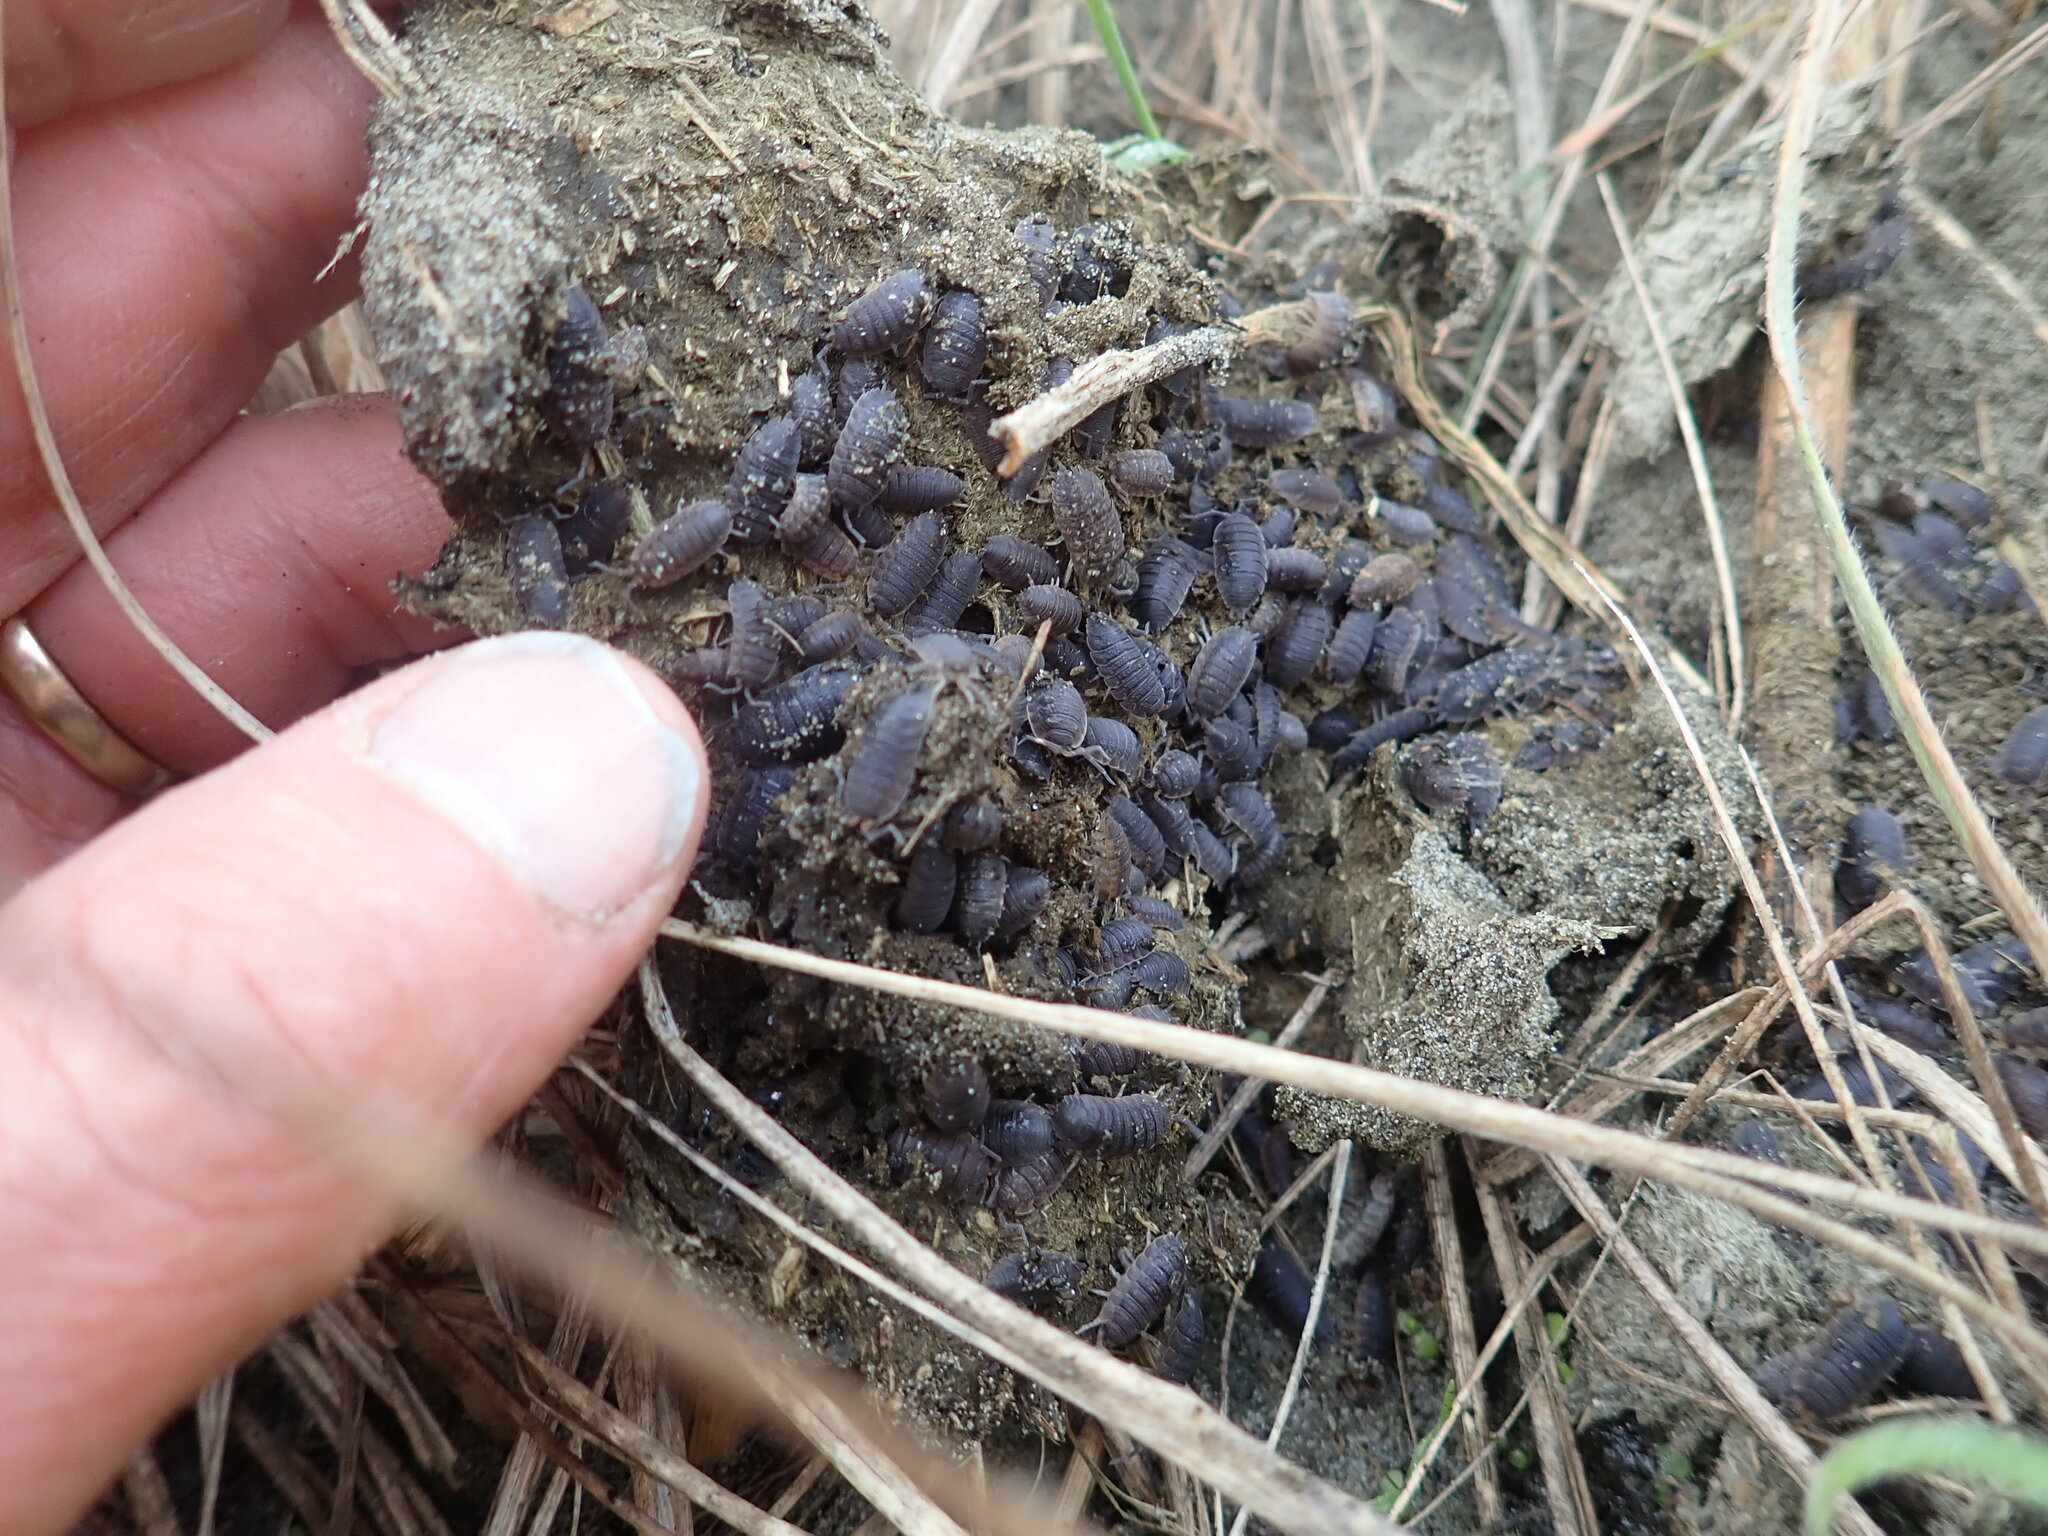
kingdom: Animalia
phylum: Arthropoda
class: Malacostraca
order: Isopoda
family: Porcellionidae
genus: Porcellio
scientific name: Porcellio scaber
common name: Common rough woodlouse
